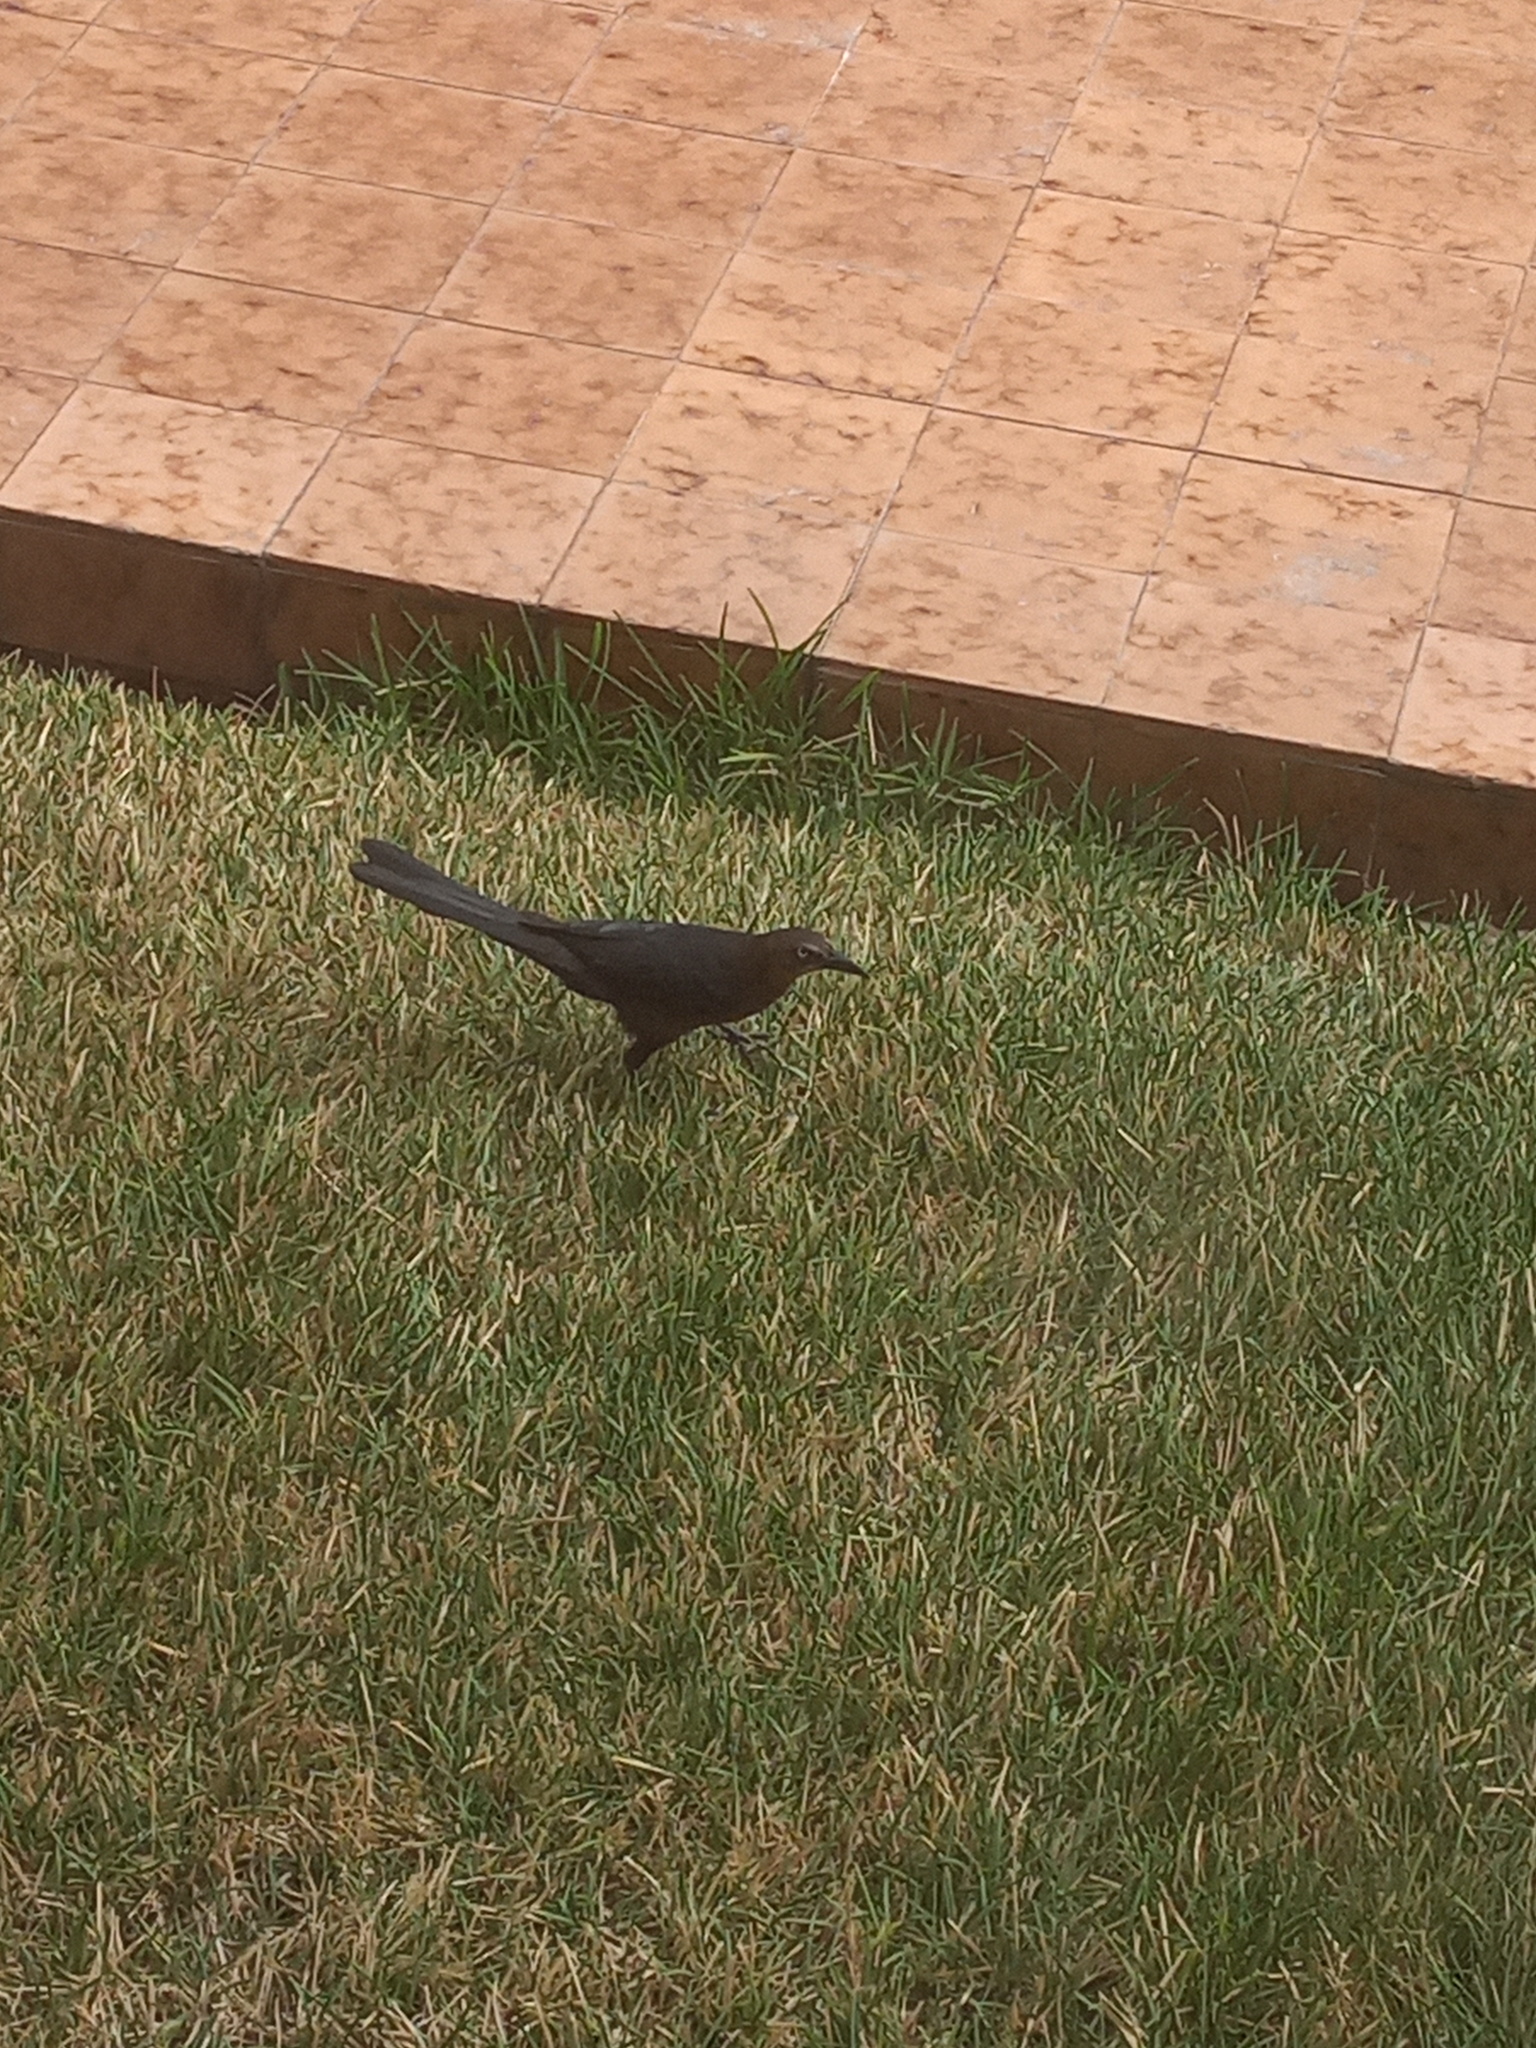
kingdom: Animalia
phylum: Chordata
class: Aves
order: Passeriformes
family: Icteridae
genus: Quiscalus
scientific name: Quiscalus mexicanus
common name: Great-tailed grackle
